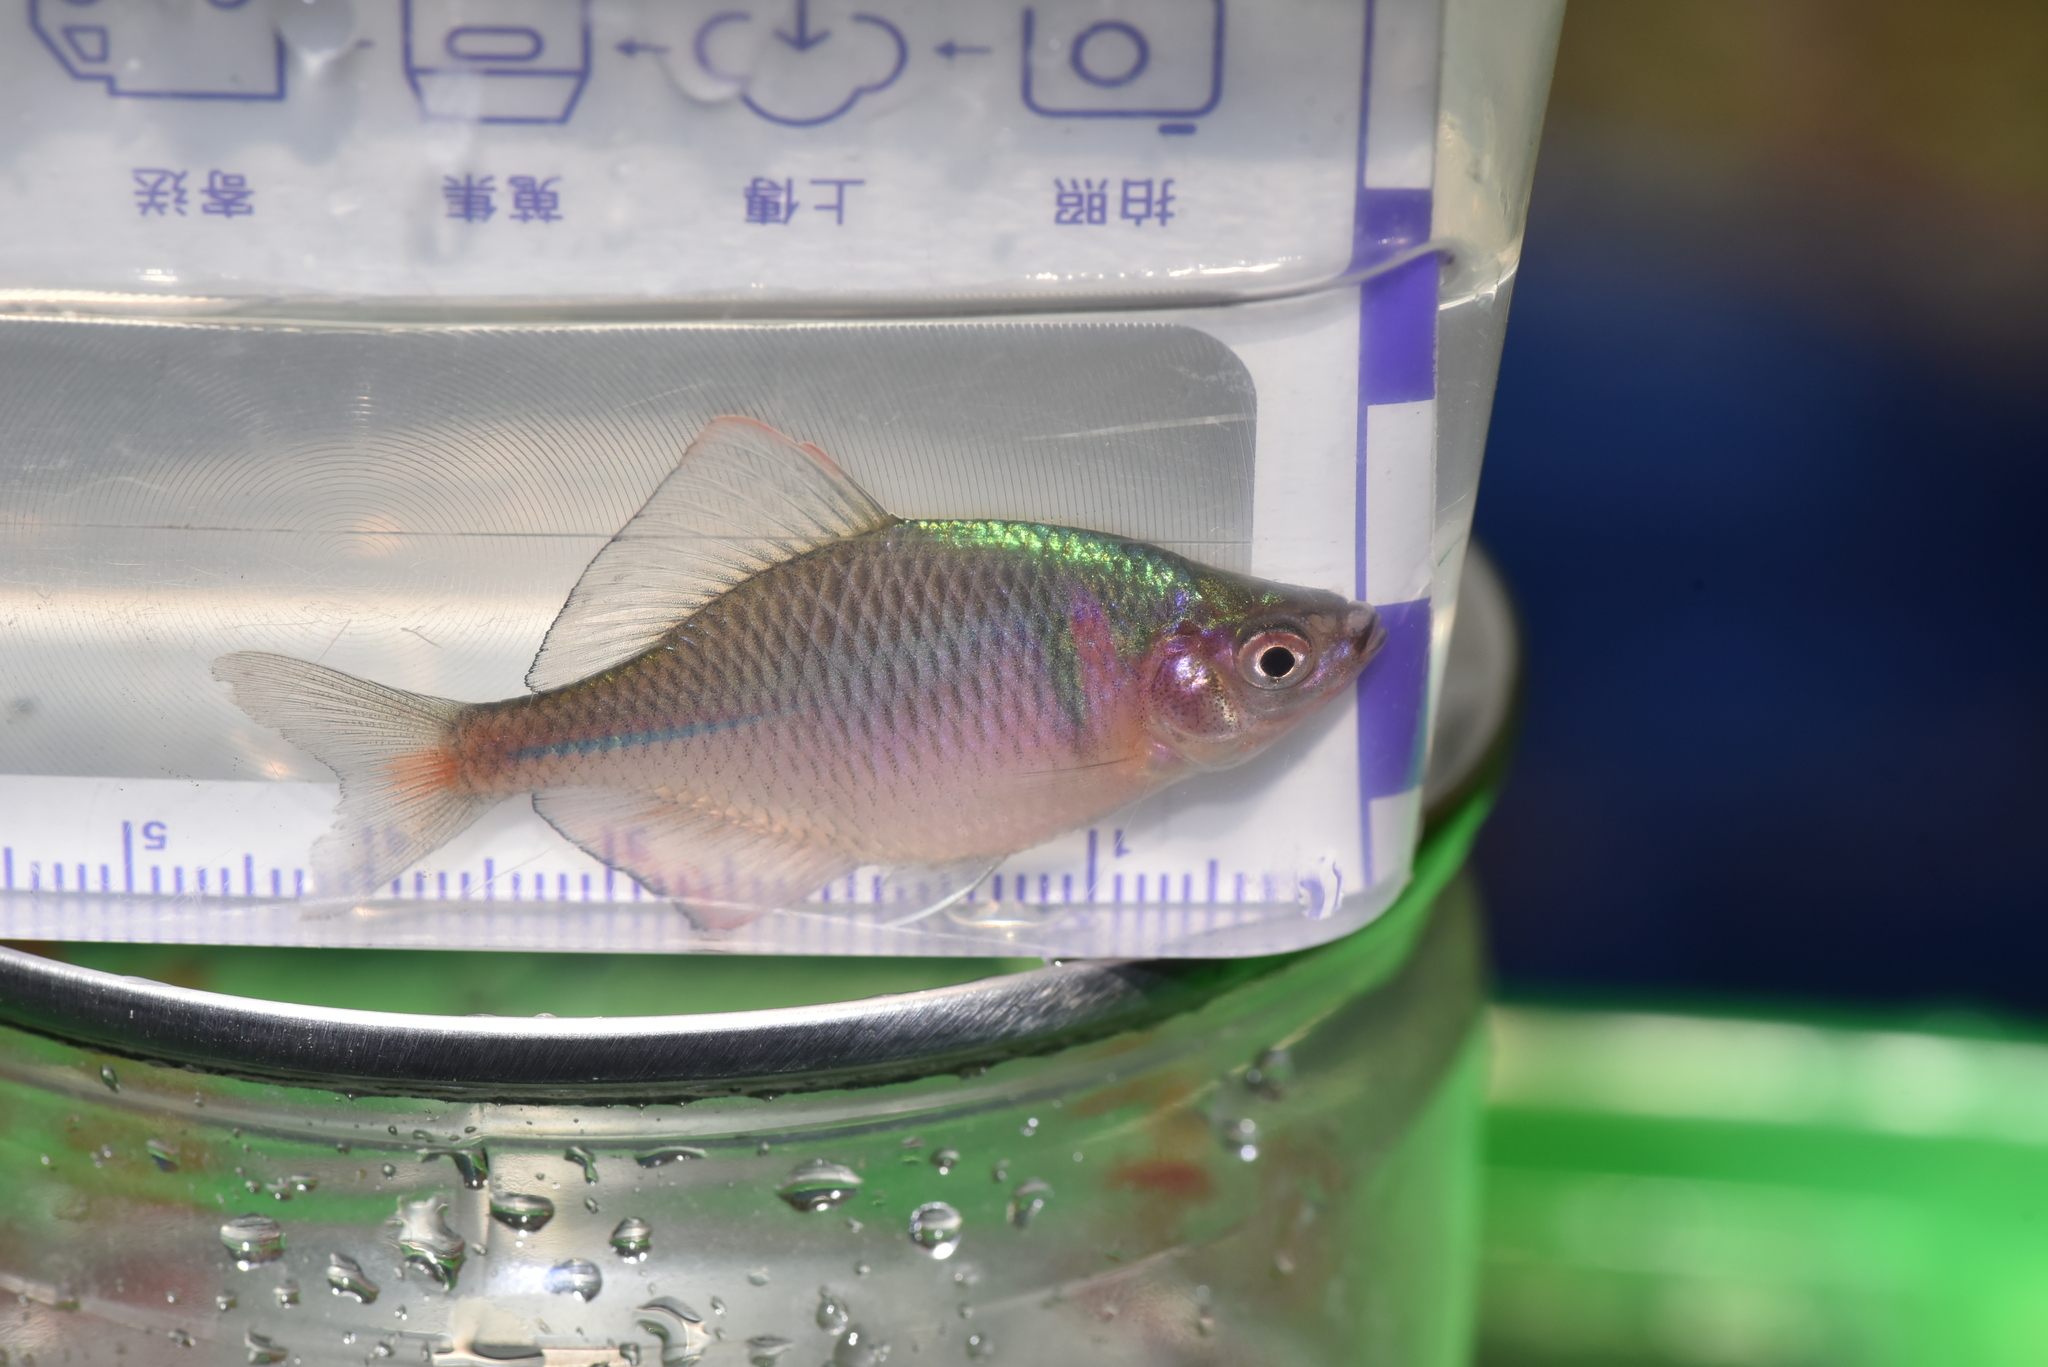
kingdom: Animalia
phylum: Chordata
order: Cypriniformes
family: Cyprinidae
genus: Rhodeus
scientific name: Rhodeus ocellatus
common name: Rose bitterling
